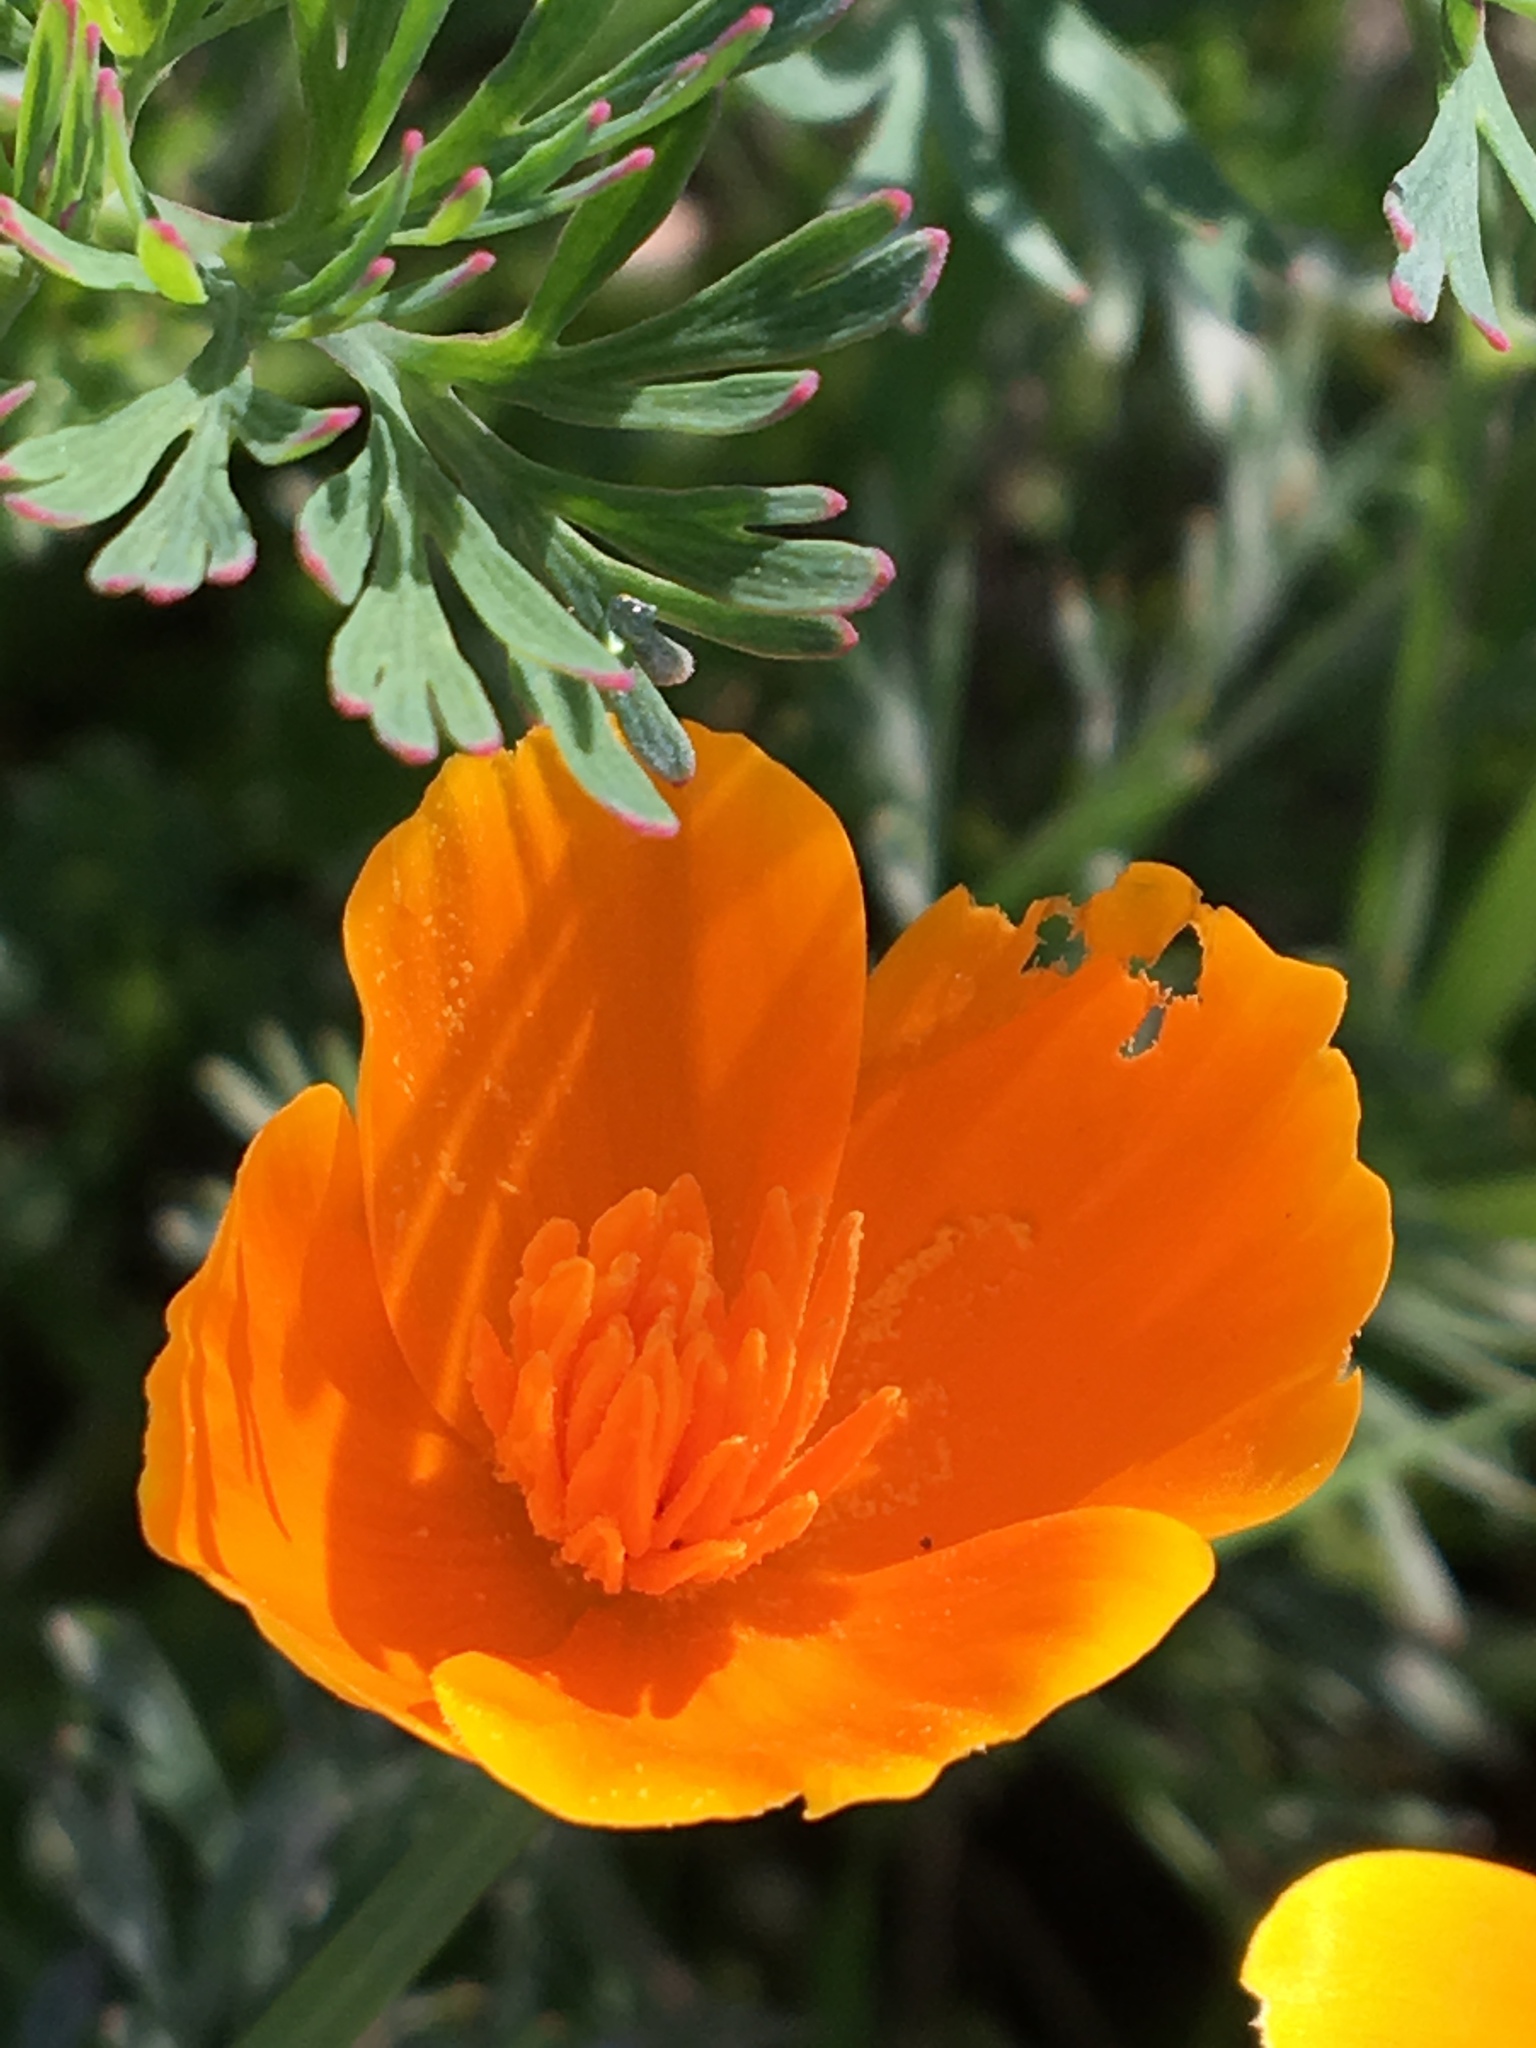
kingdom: Plantae
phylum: Tracheophyta
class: Magnoliopsida
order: Ranunculales
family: Papaveraceae
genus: Eschscholzia
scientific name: Eschscholzia californica
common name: California poppy
